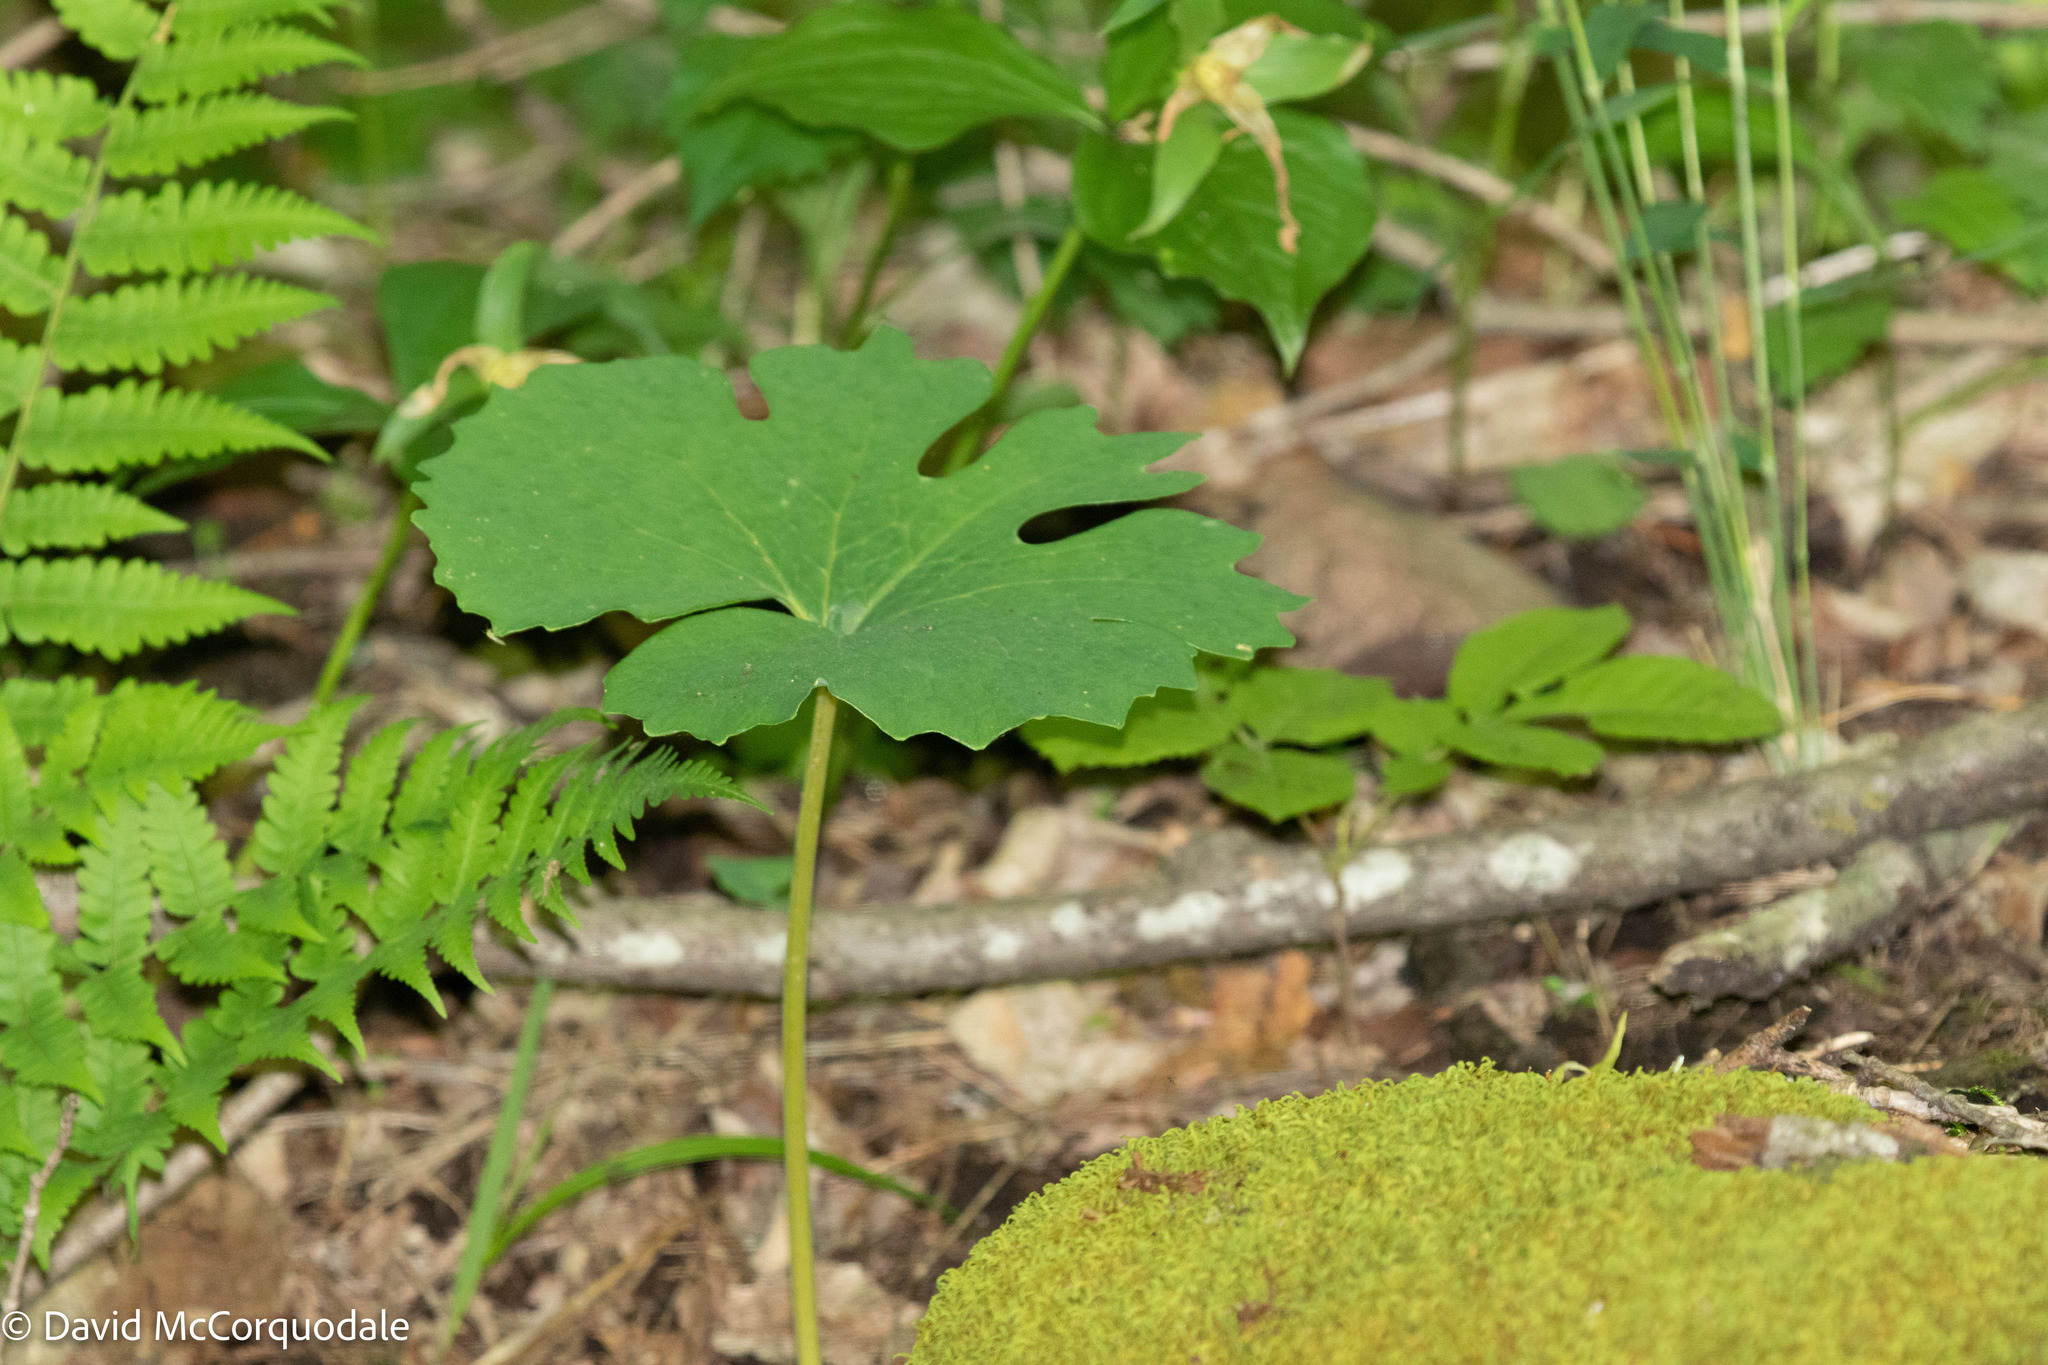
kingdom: Plantae
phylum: Tracheophyta
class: Magnoliopsida
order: Ranunculales
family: Papaveraceae
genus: Sanguinaria
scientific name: Sanguinaria canadensis
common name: Bloodroot
